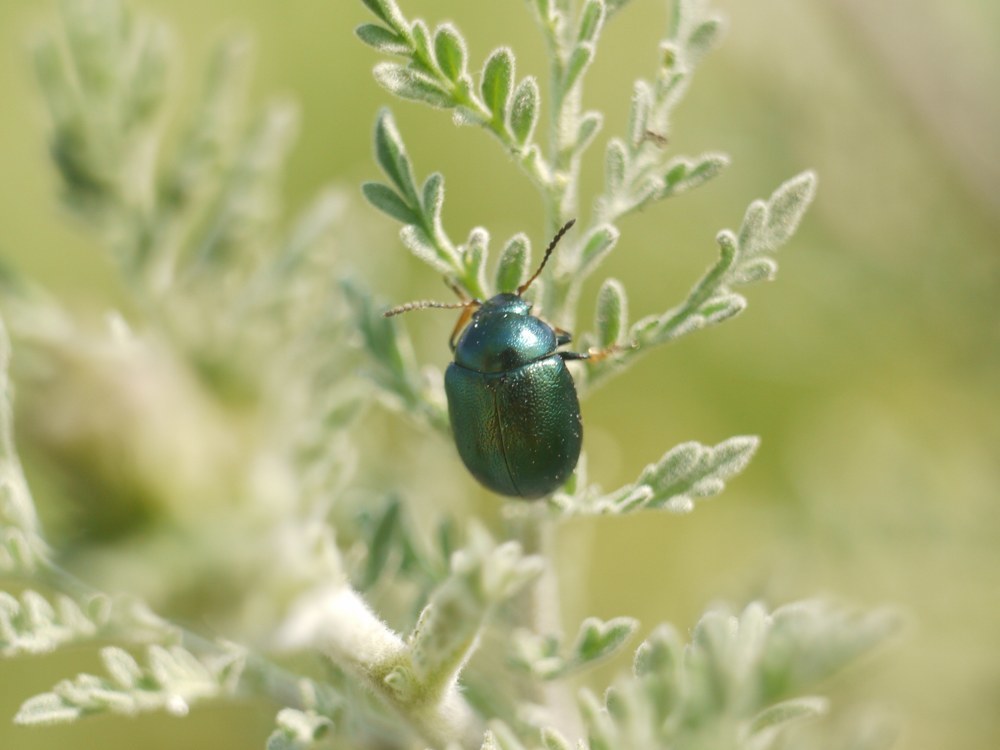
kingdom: Animalia
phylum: Arthropoda
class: Insecta
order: Coleoptera
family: Chrysomelidae
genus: Colaphellus
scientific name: Colaphellus sophiae
